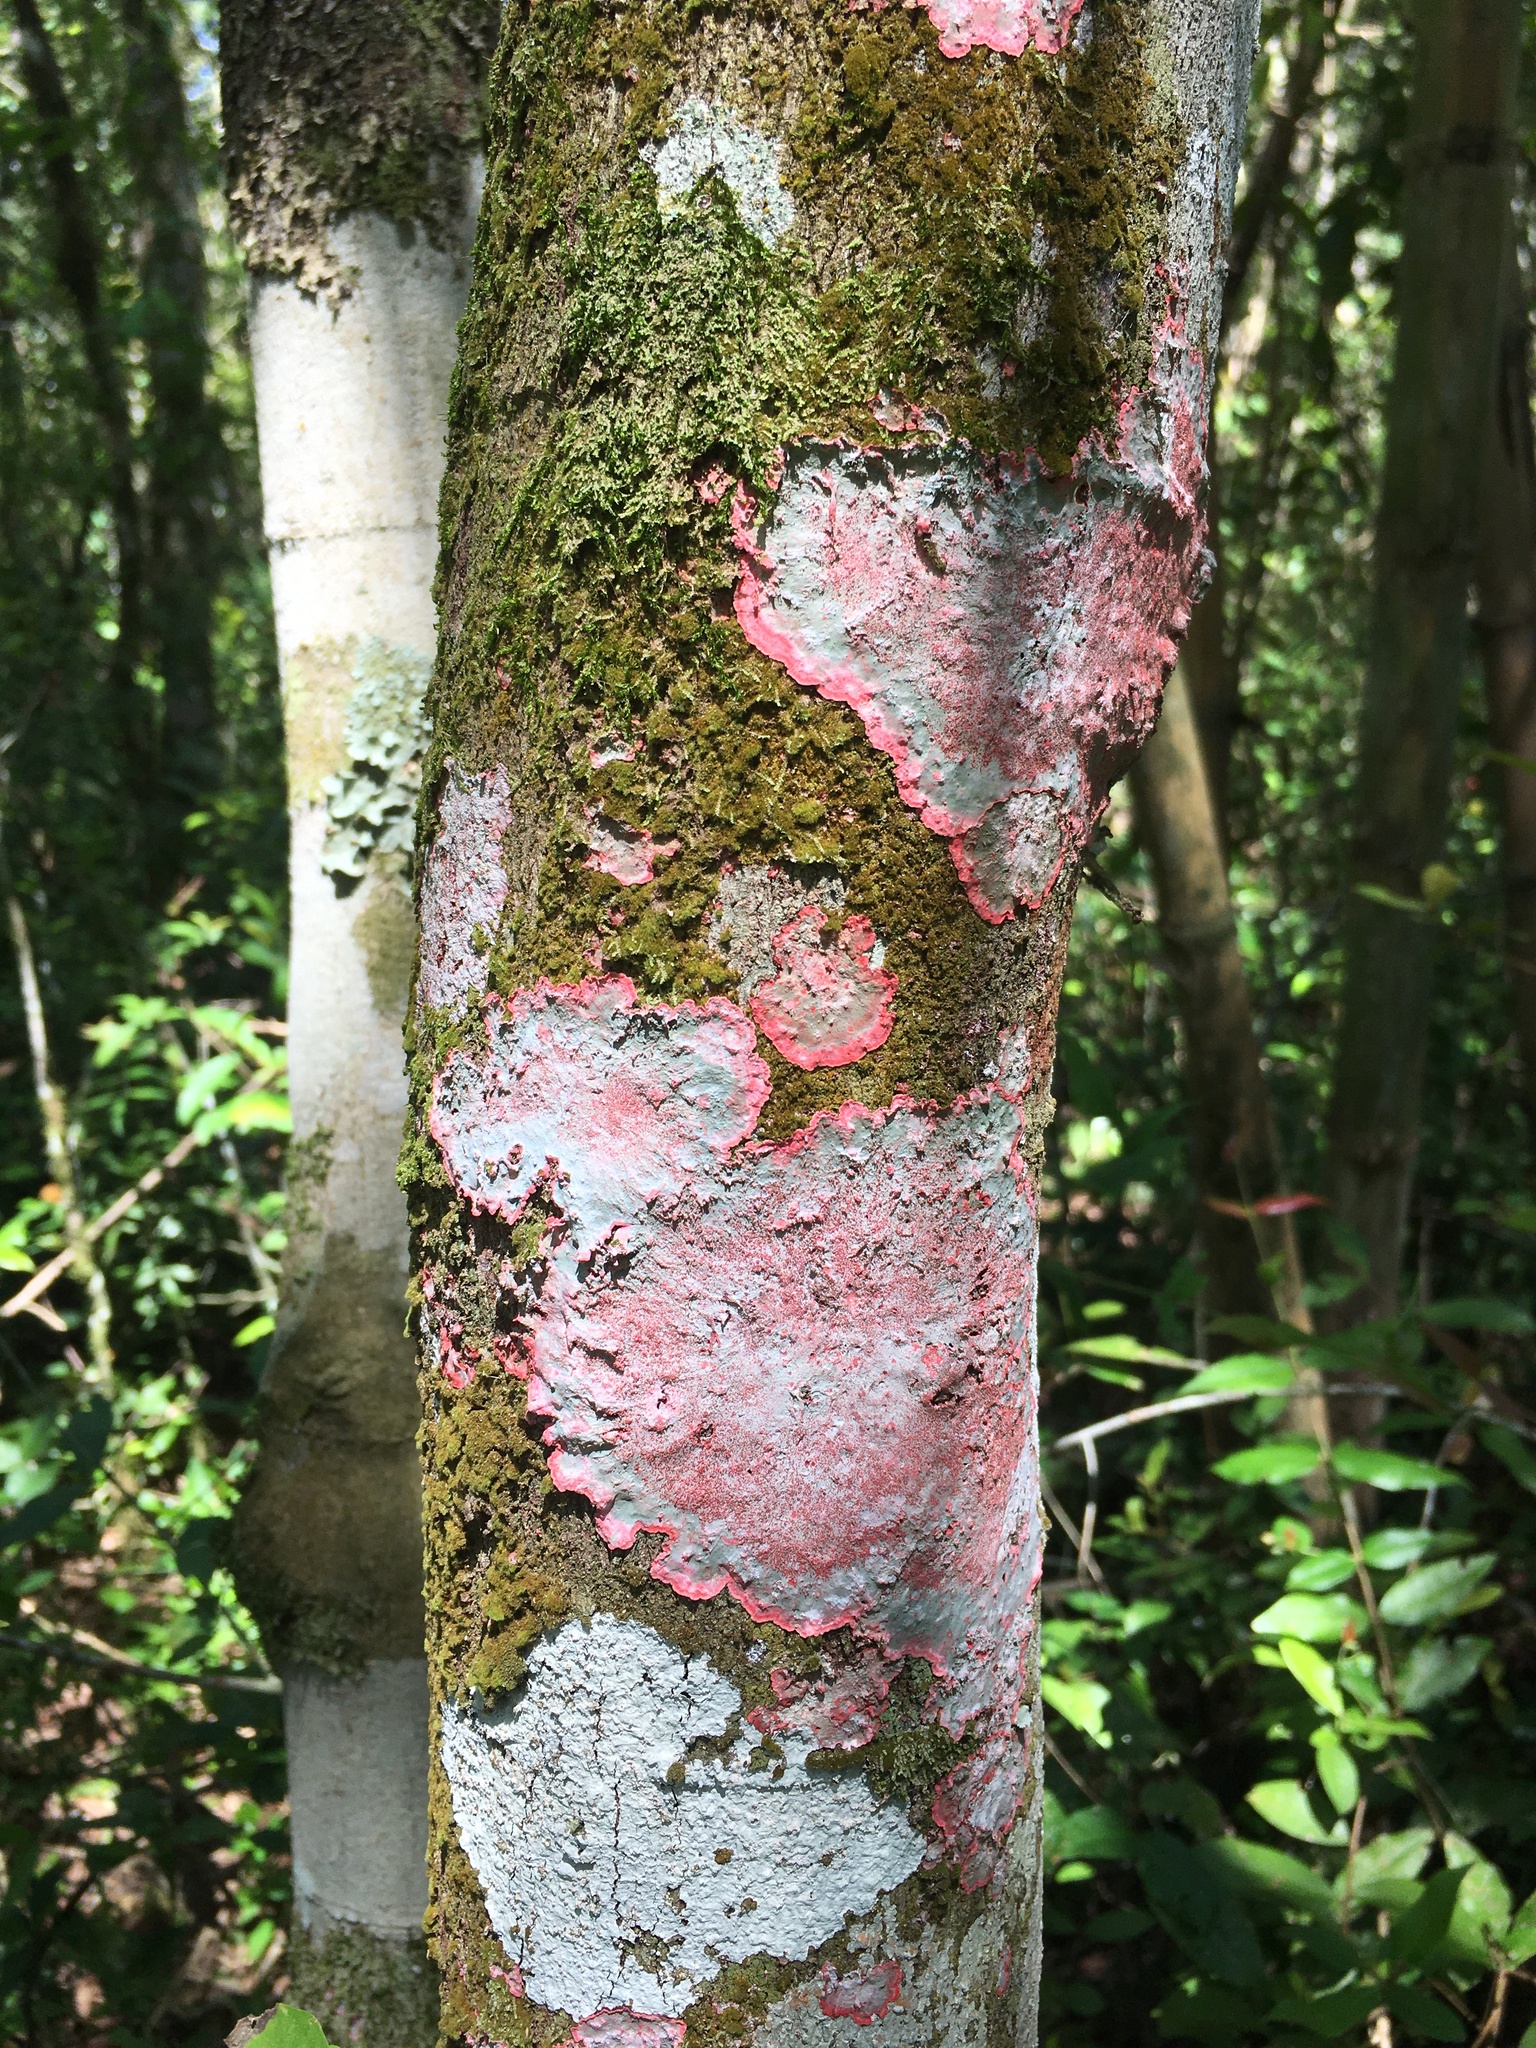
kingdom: Fungi
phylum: Ascomycota
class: Arthoniomycetes
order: Arthoniales
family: Arthoniaceae
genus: Herpothallon
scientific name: Herpothallon rubrocinctum
